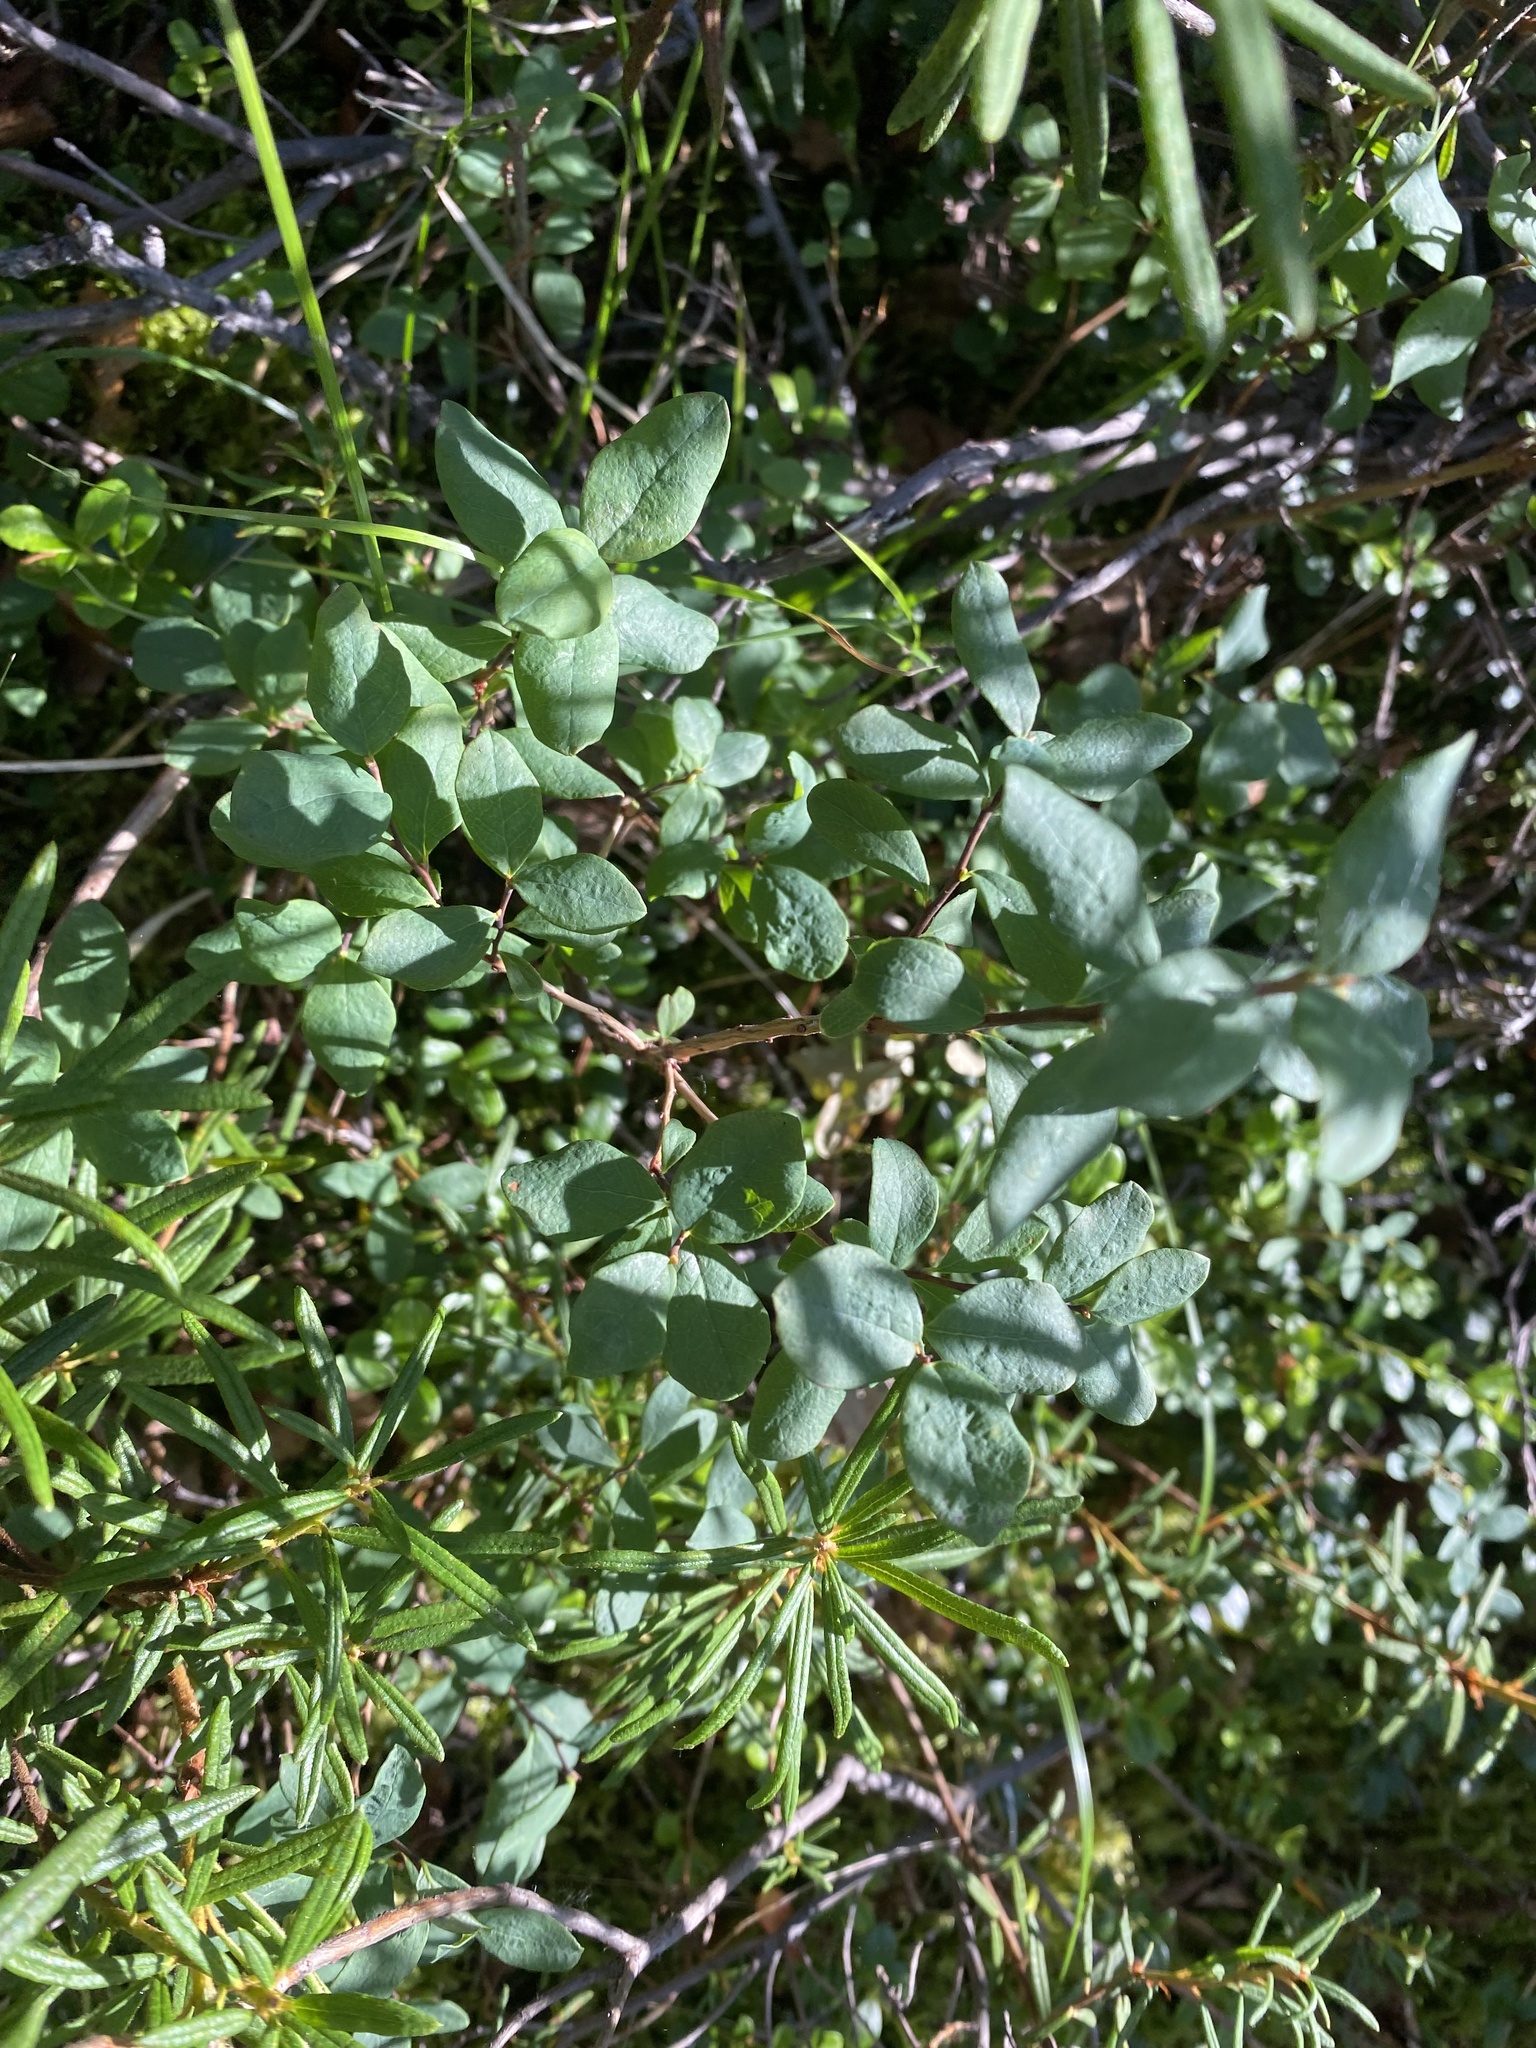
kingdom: Plantae
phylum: Tracheophyta
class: Magnoliopsida
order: Ericales
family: Ericaceae
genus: Vaccinium
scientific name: Vaccinium uliginosum
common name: Bog bilberry
